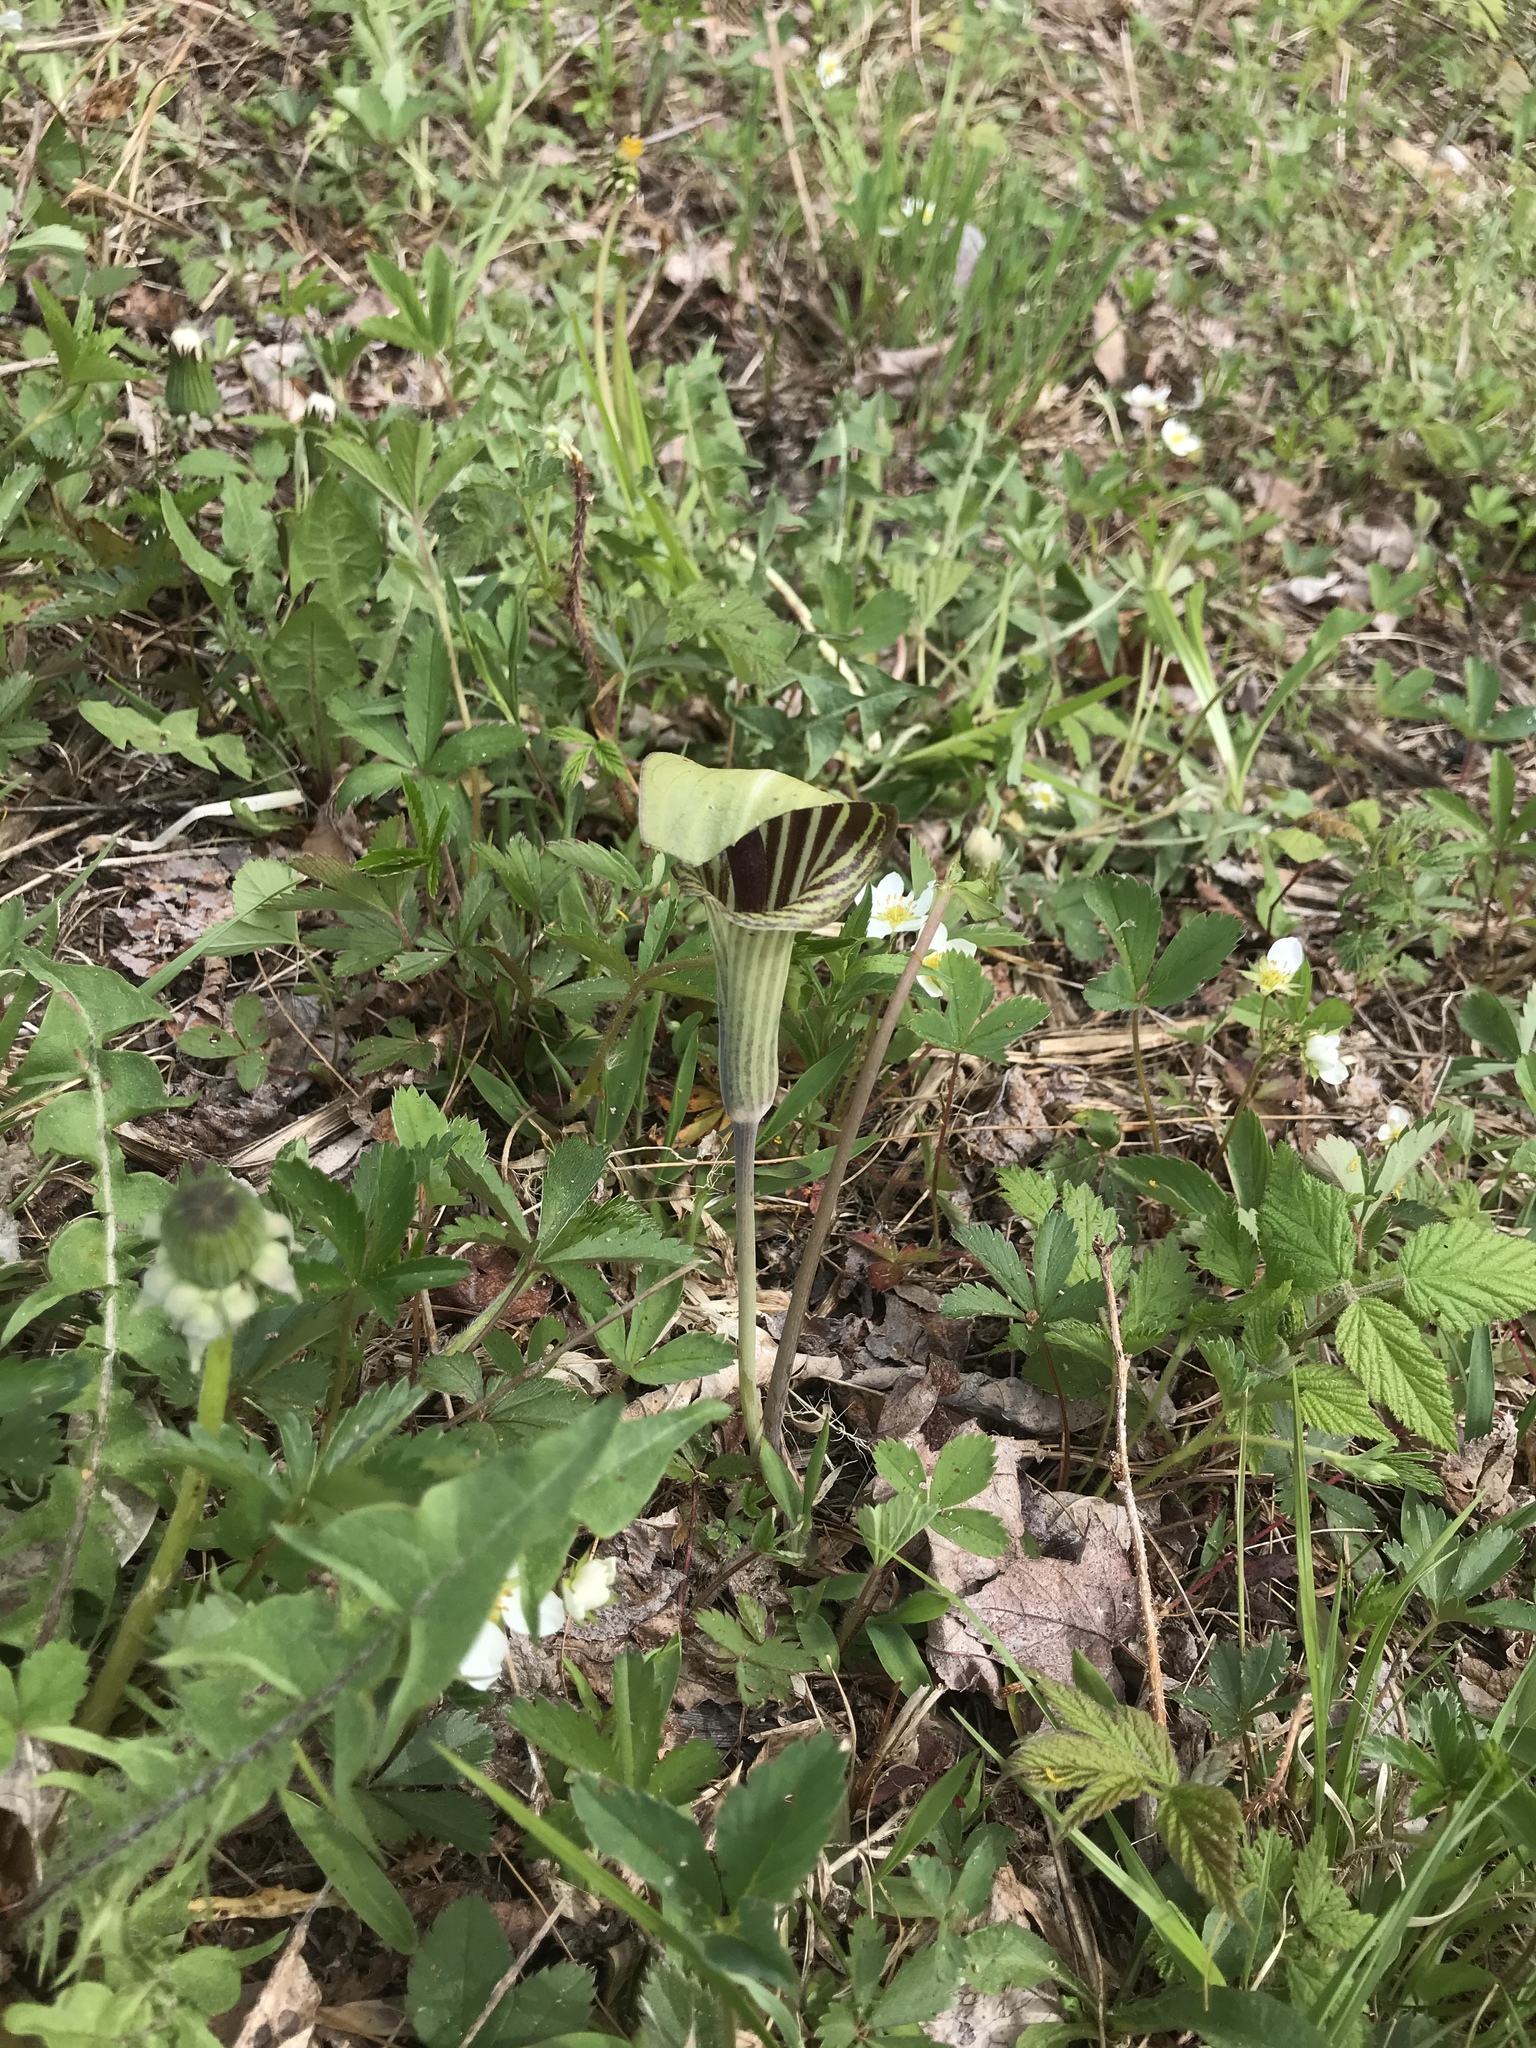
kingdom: Plantae
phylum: Tracheophyta
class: Liliopsida
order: Alismatales
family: Araceae
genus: Arisaema
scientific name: Arisaema triphyllum
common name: Jack-in-the-pulpit
